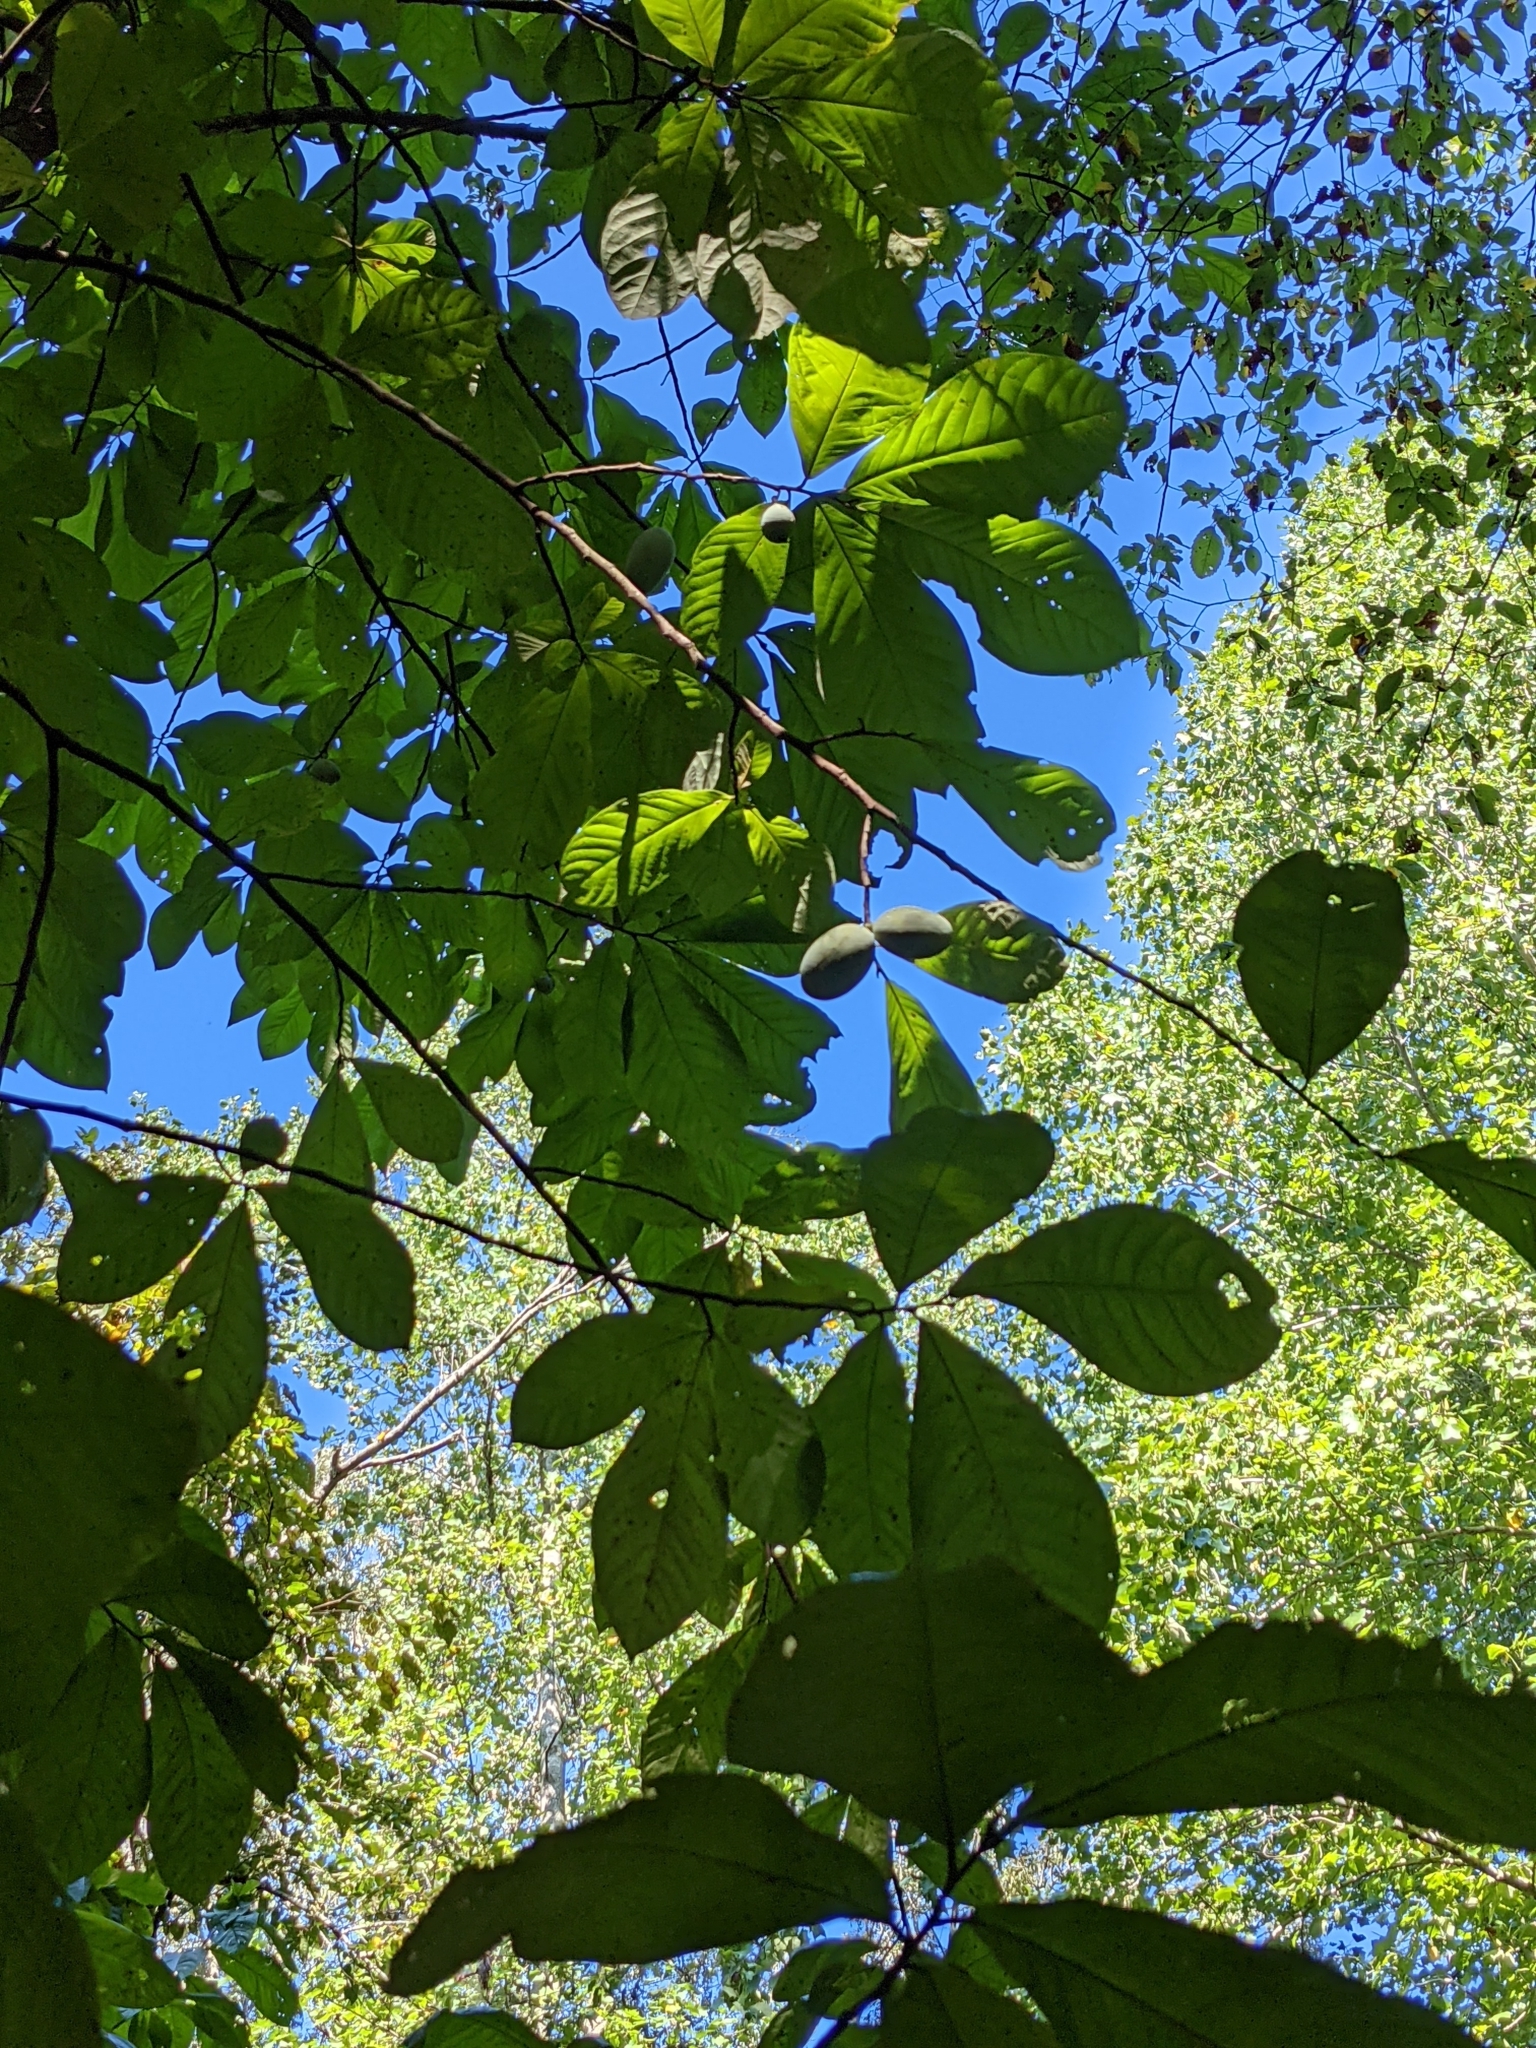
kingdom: Plantae
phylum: Tracheophyta
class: Magnoliopsida
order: Magnoliales
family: Annonaceae
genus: Asimina
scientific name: Asimina triloba
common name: Dog-banana
